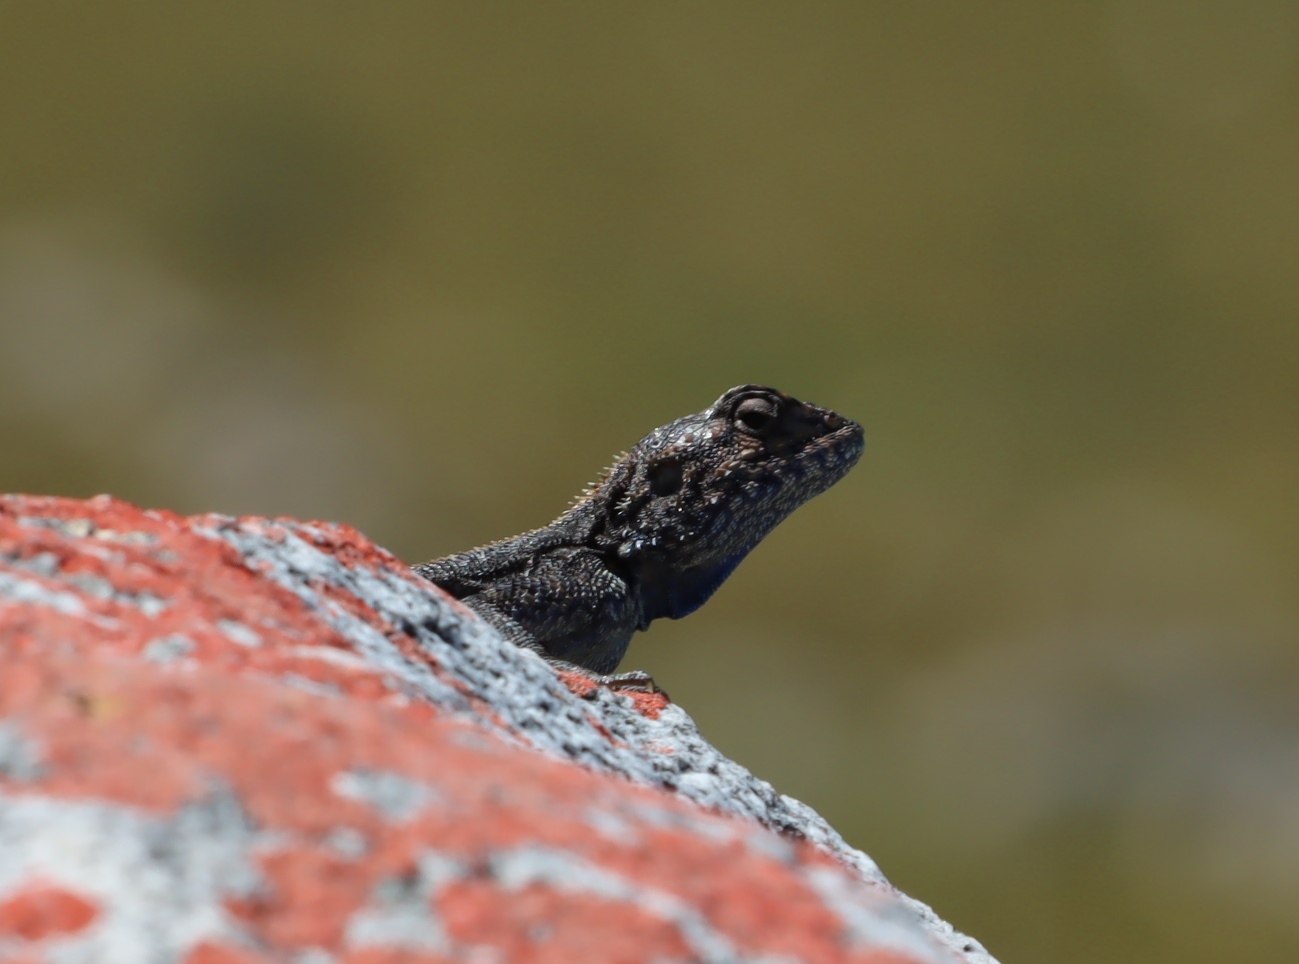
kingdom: Animalia
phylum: Chordata
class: Squamata
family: Agamidae
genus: Agama
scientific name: Agama atra
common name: Southern african rock agama
